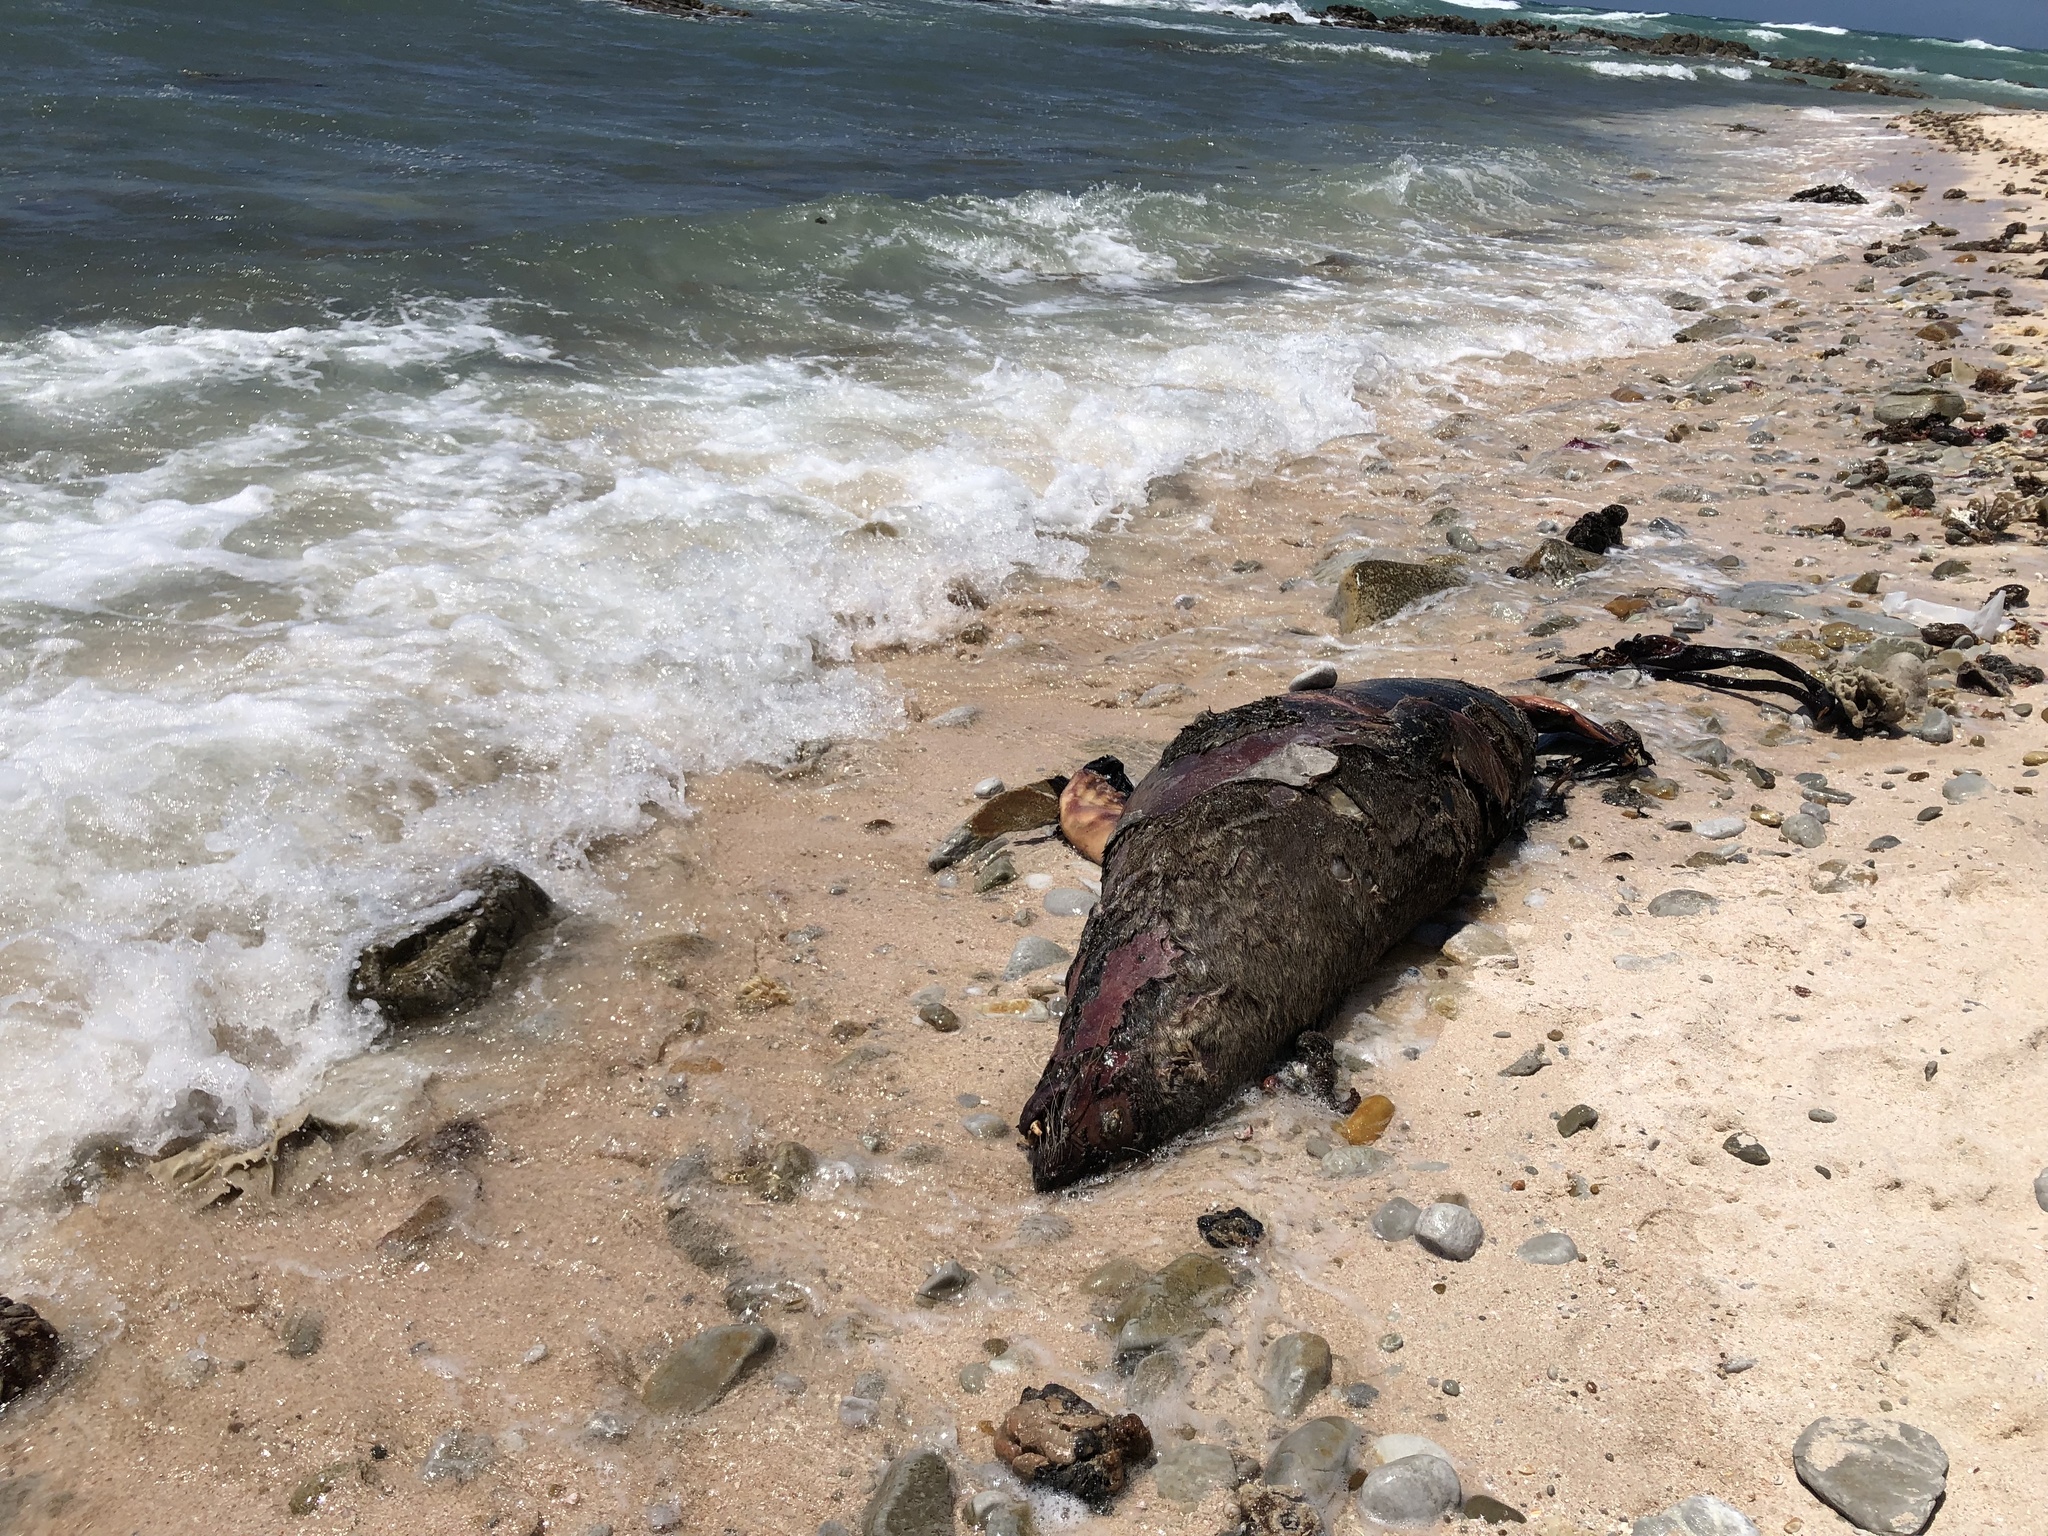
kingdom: Animalia
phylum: Chordata
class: Mammalia
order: Carnivora
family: Otariidae
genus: Arctocephalus
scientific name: Arctocephalus pusillus
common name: Brown fur seal
